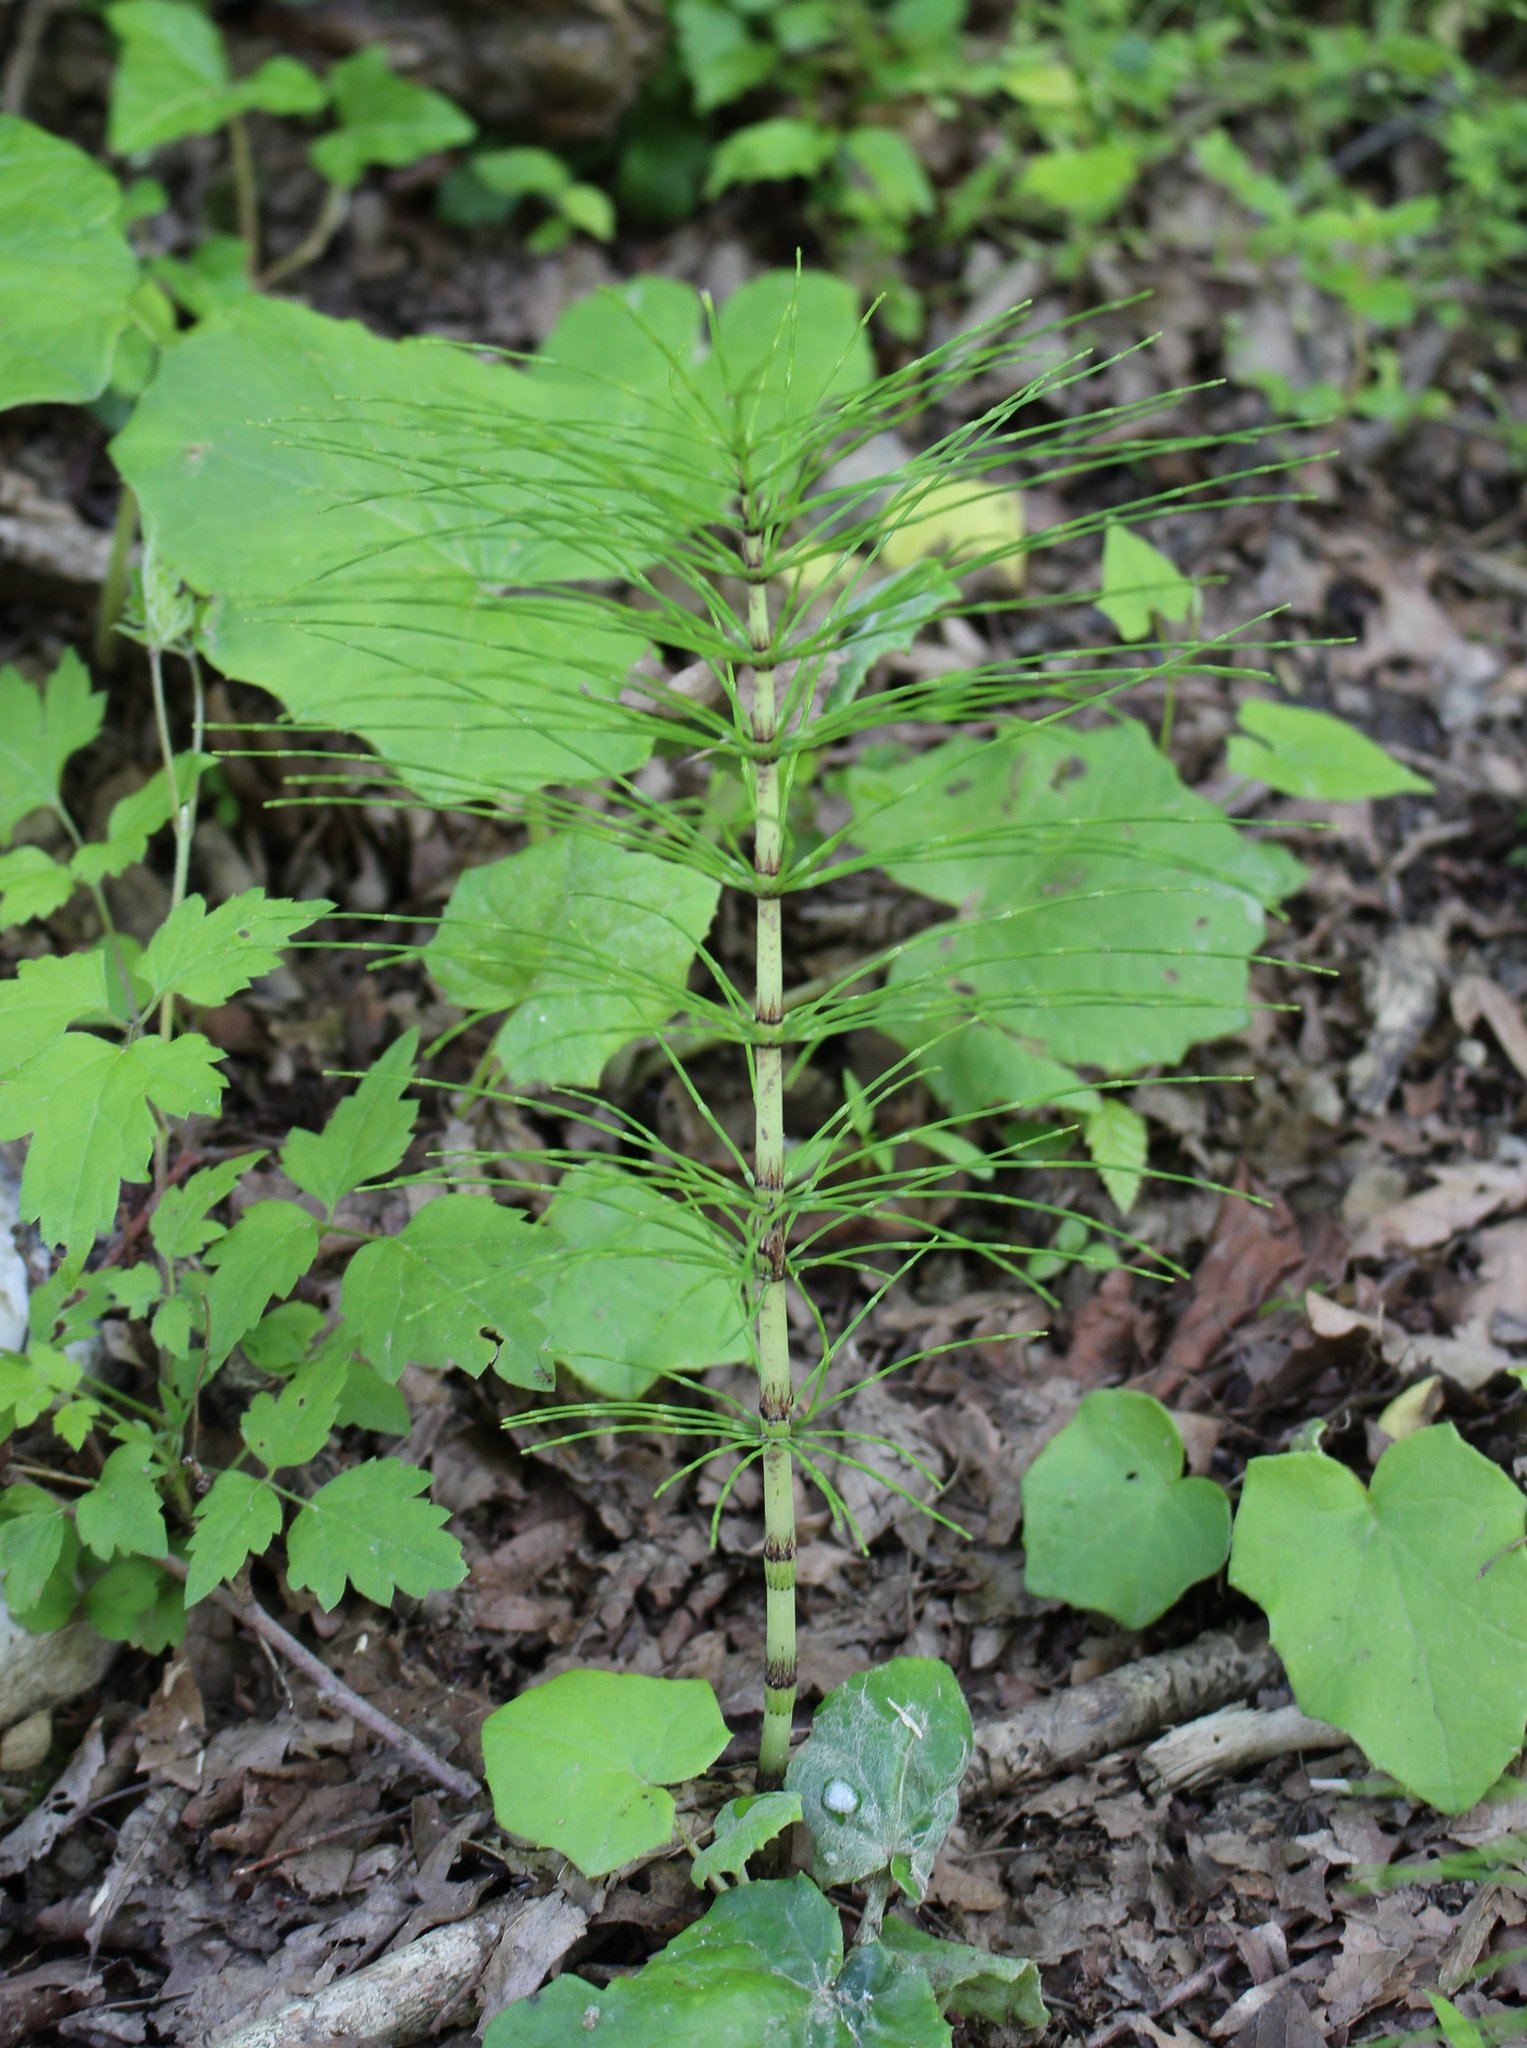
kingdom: Plantae
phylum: Tracheophyta
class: Polypodiopsida
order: Equisetales
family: Equisetaceae
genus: Equisetum
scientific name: Equisetum telmateia
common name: Great horsetail
